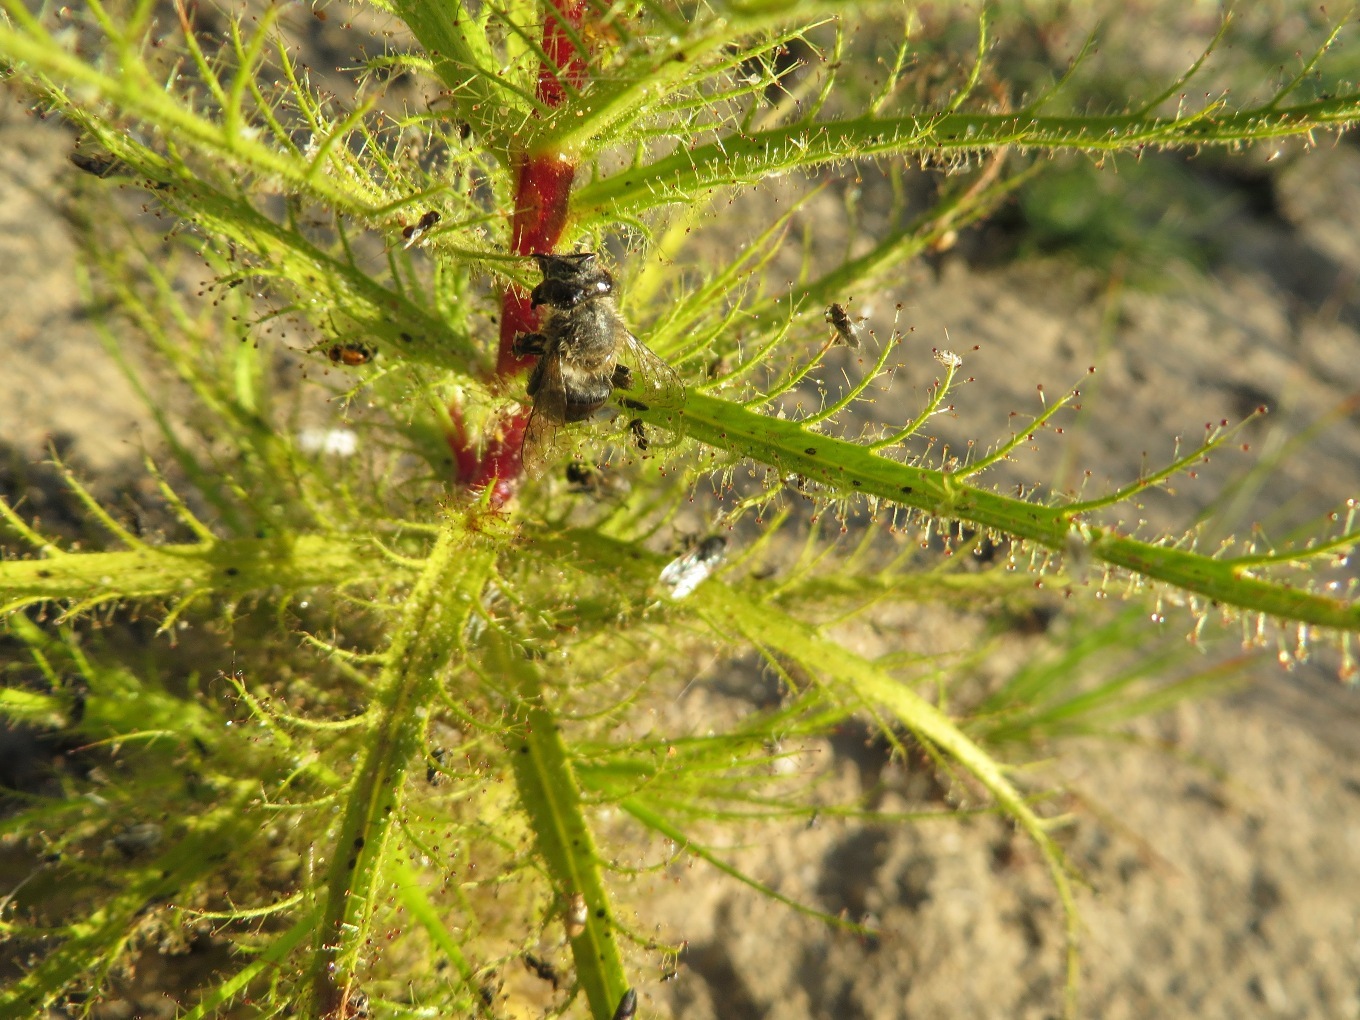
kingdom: Plantae
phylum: Tracheophyta
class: Magnoliopsida
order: Ericales
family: Roridulaceae
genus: Roridula
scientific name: Roridula dentata
